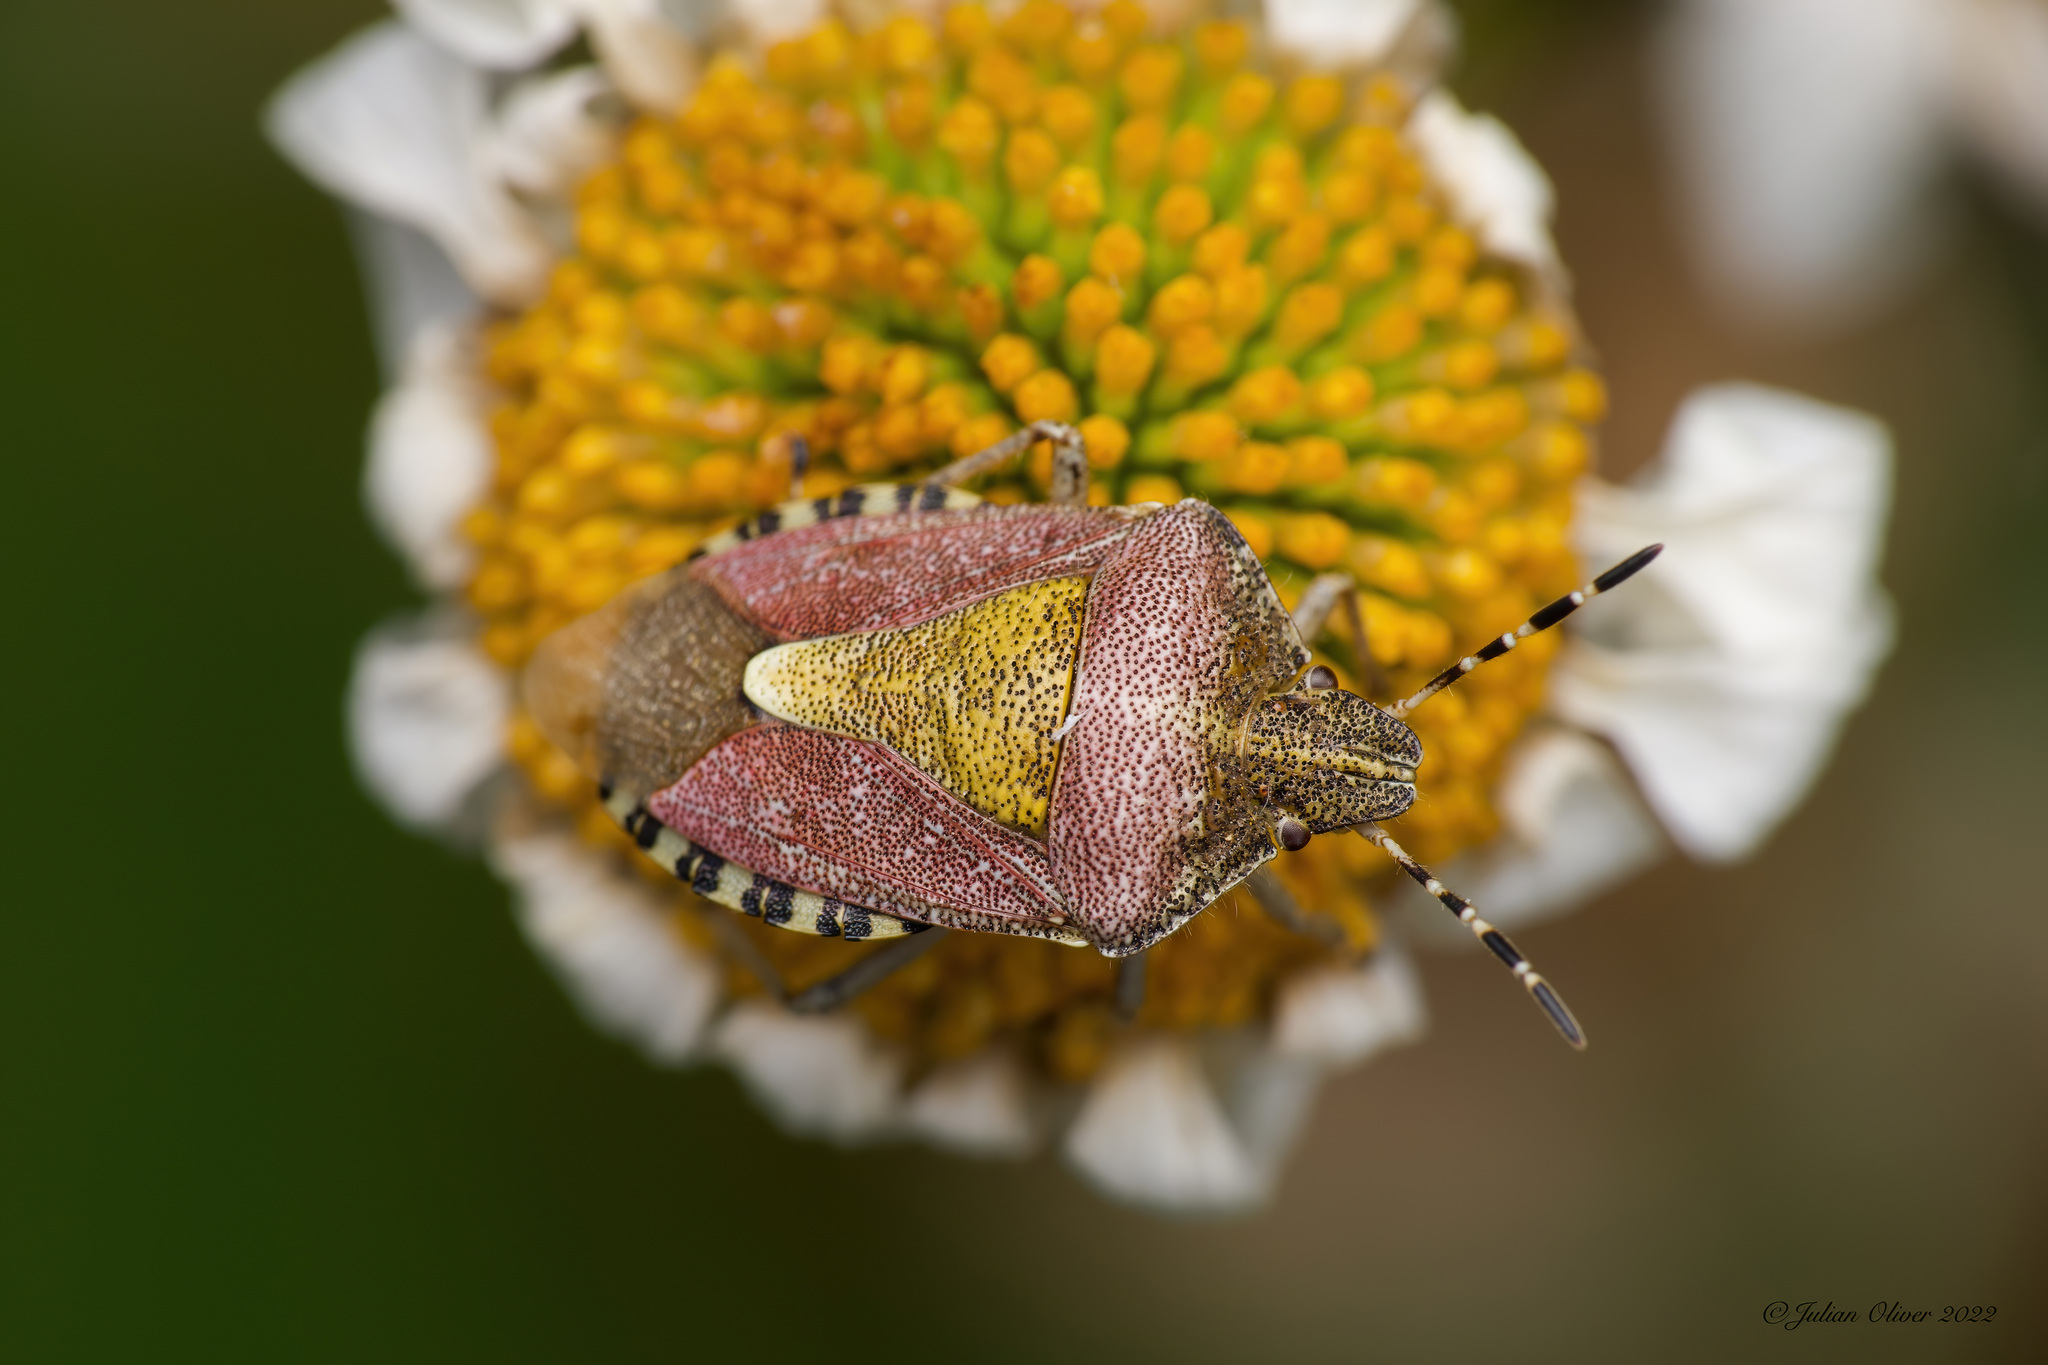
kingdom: Animalia
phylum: Arthropoda
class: Insecta
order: Hemiptera
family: Pentatomidae
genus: Dolycoris
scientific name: Dolycoris baccarum
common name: Sloe bug
